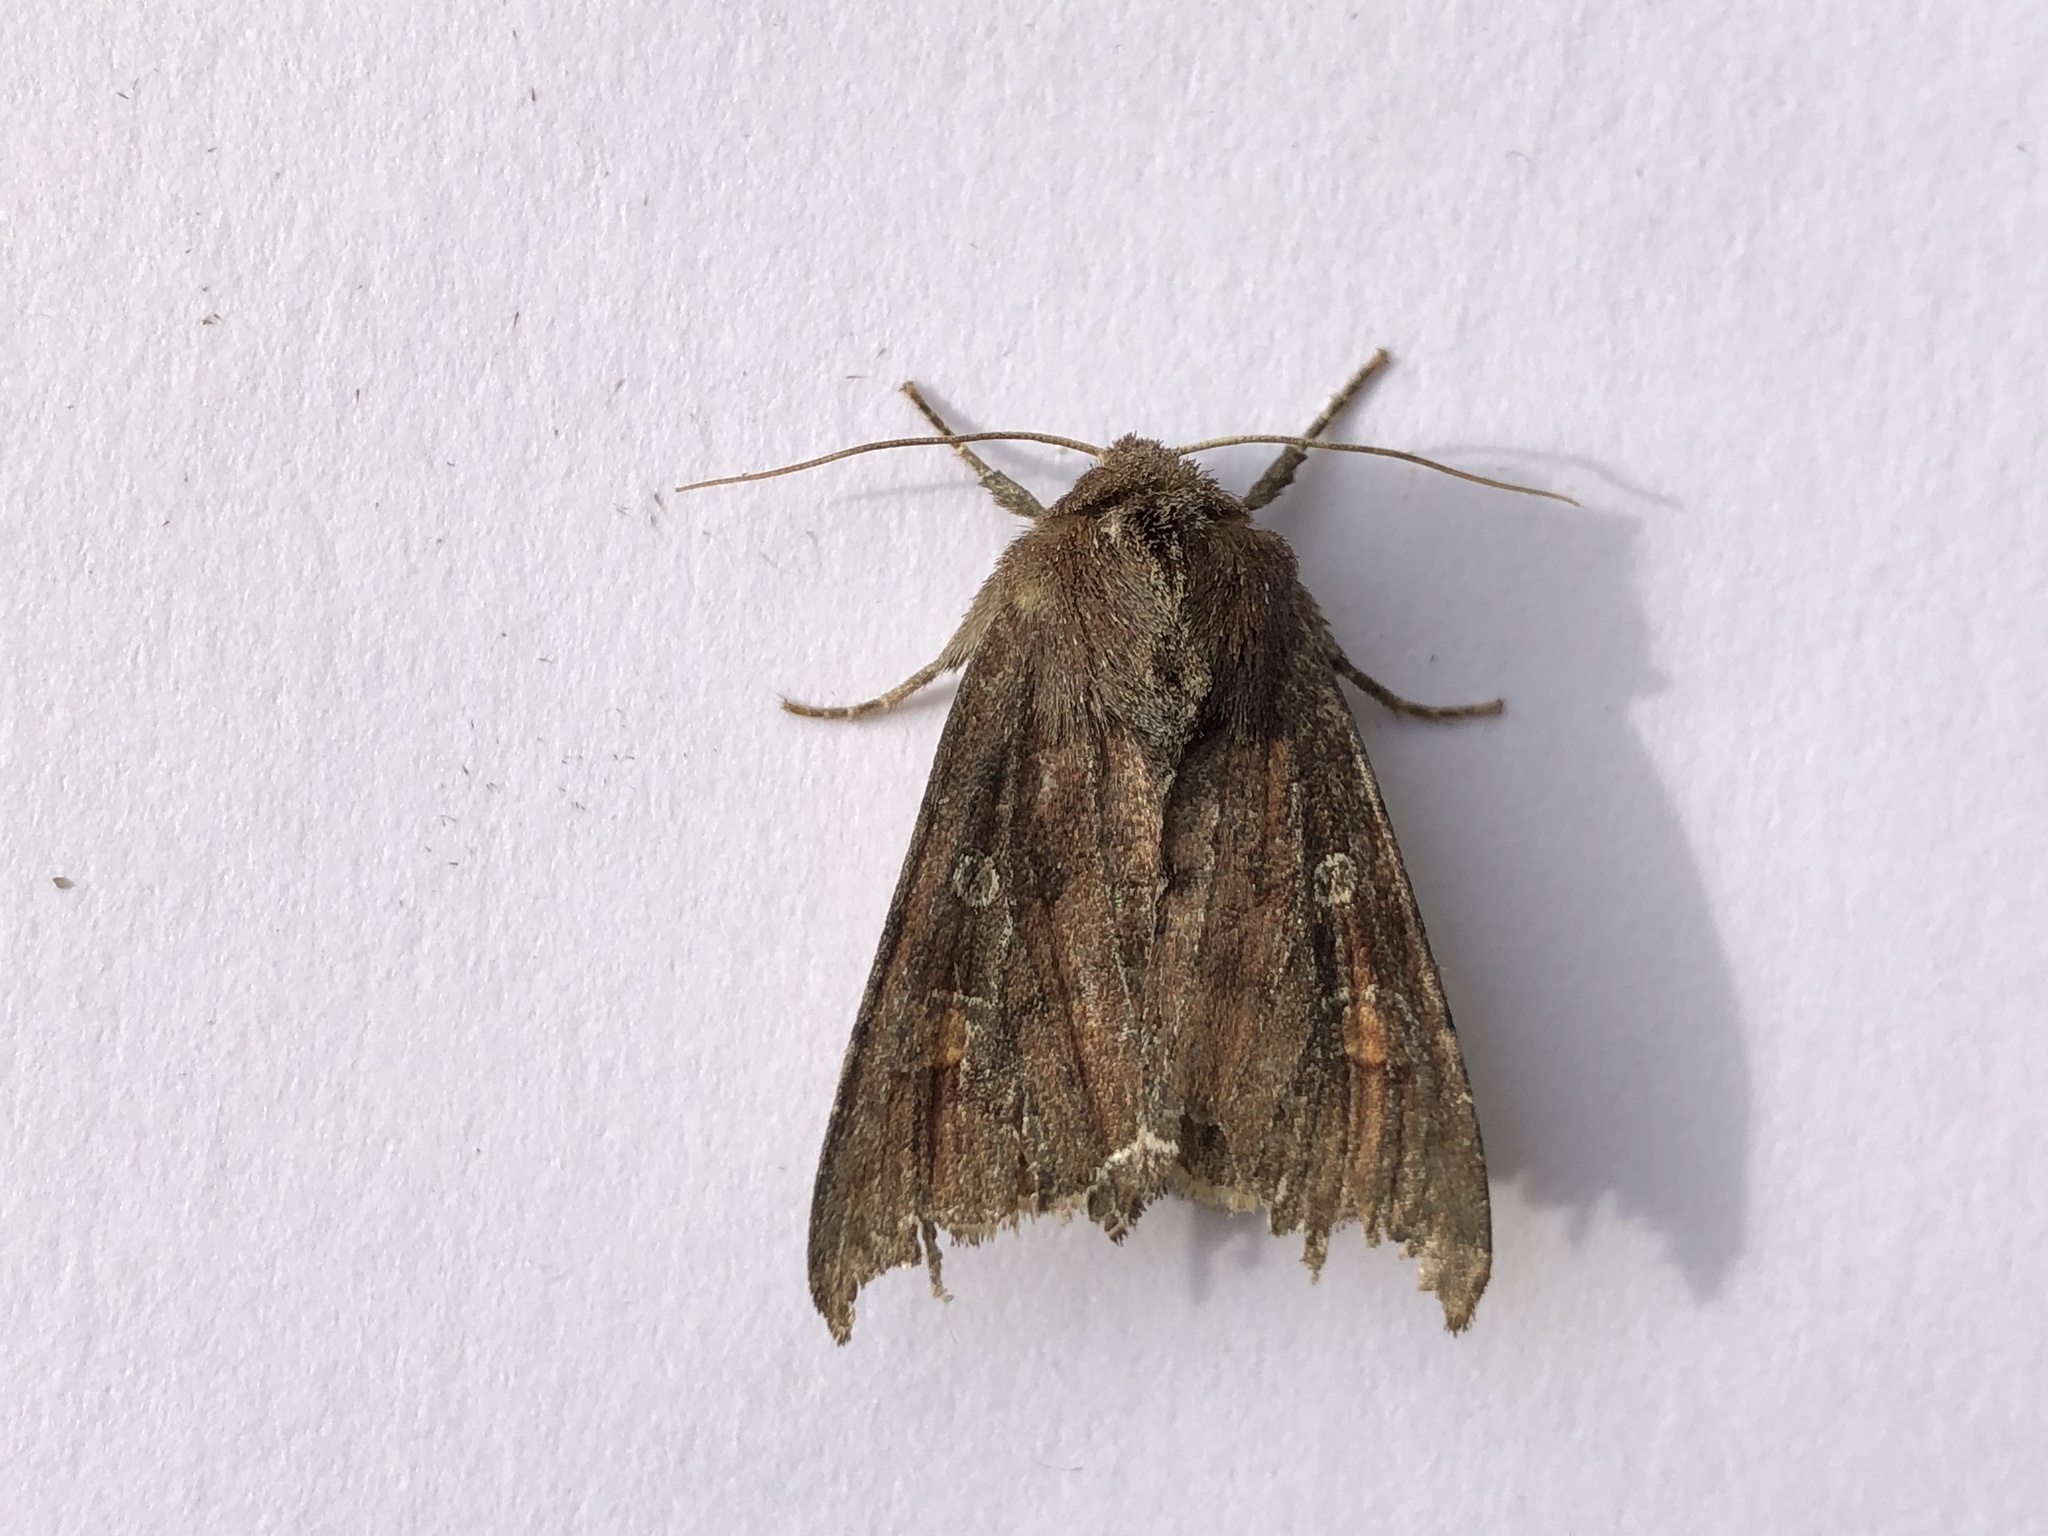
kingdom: Animalia
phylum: Arthropoda
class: Insecta
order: Lepidoptera
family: Noctuidae
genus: Lacanobia
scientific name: Lacanobia oleracea
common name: Bright-line brown-eye
